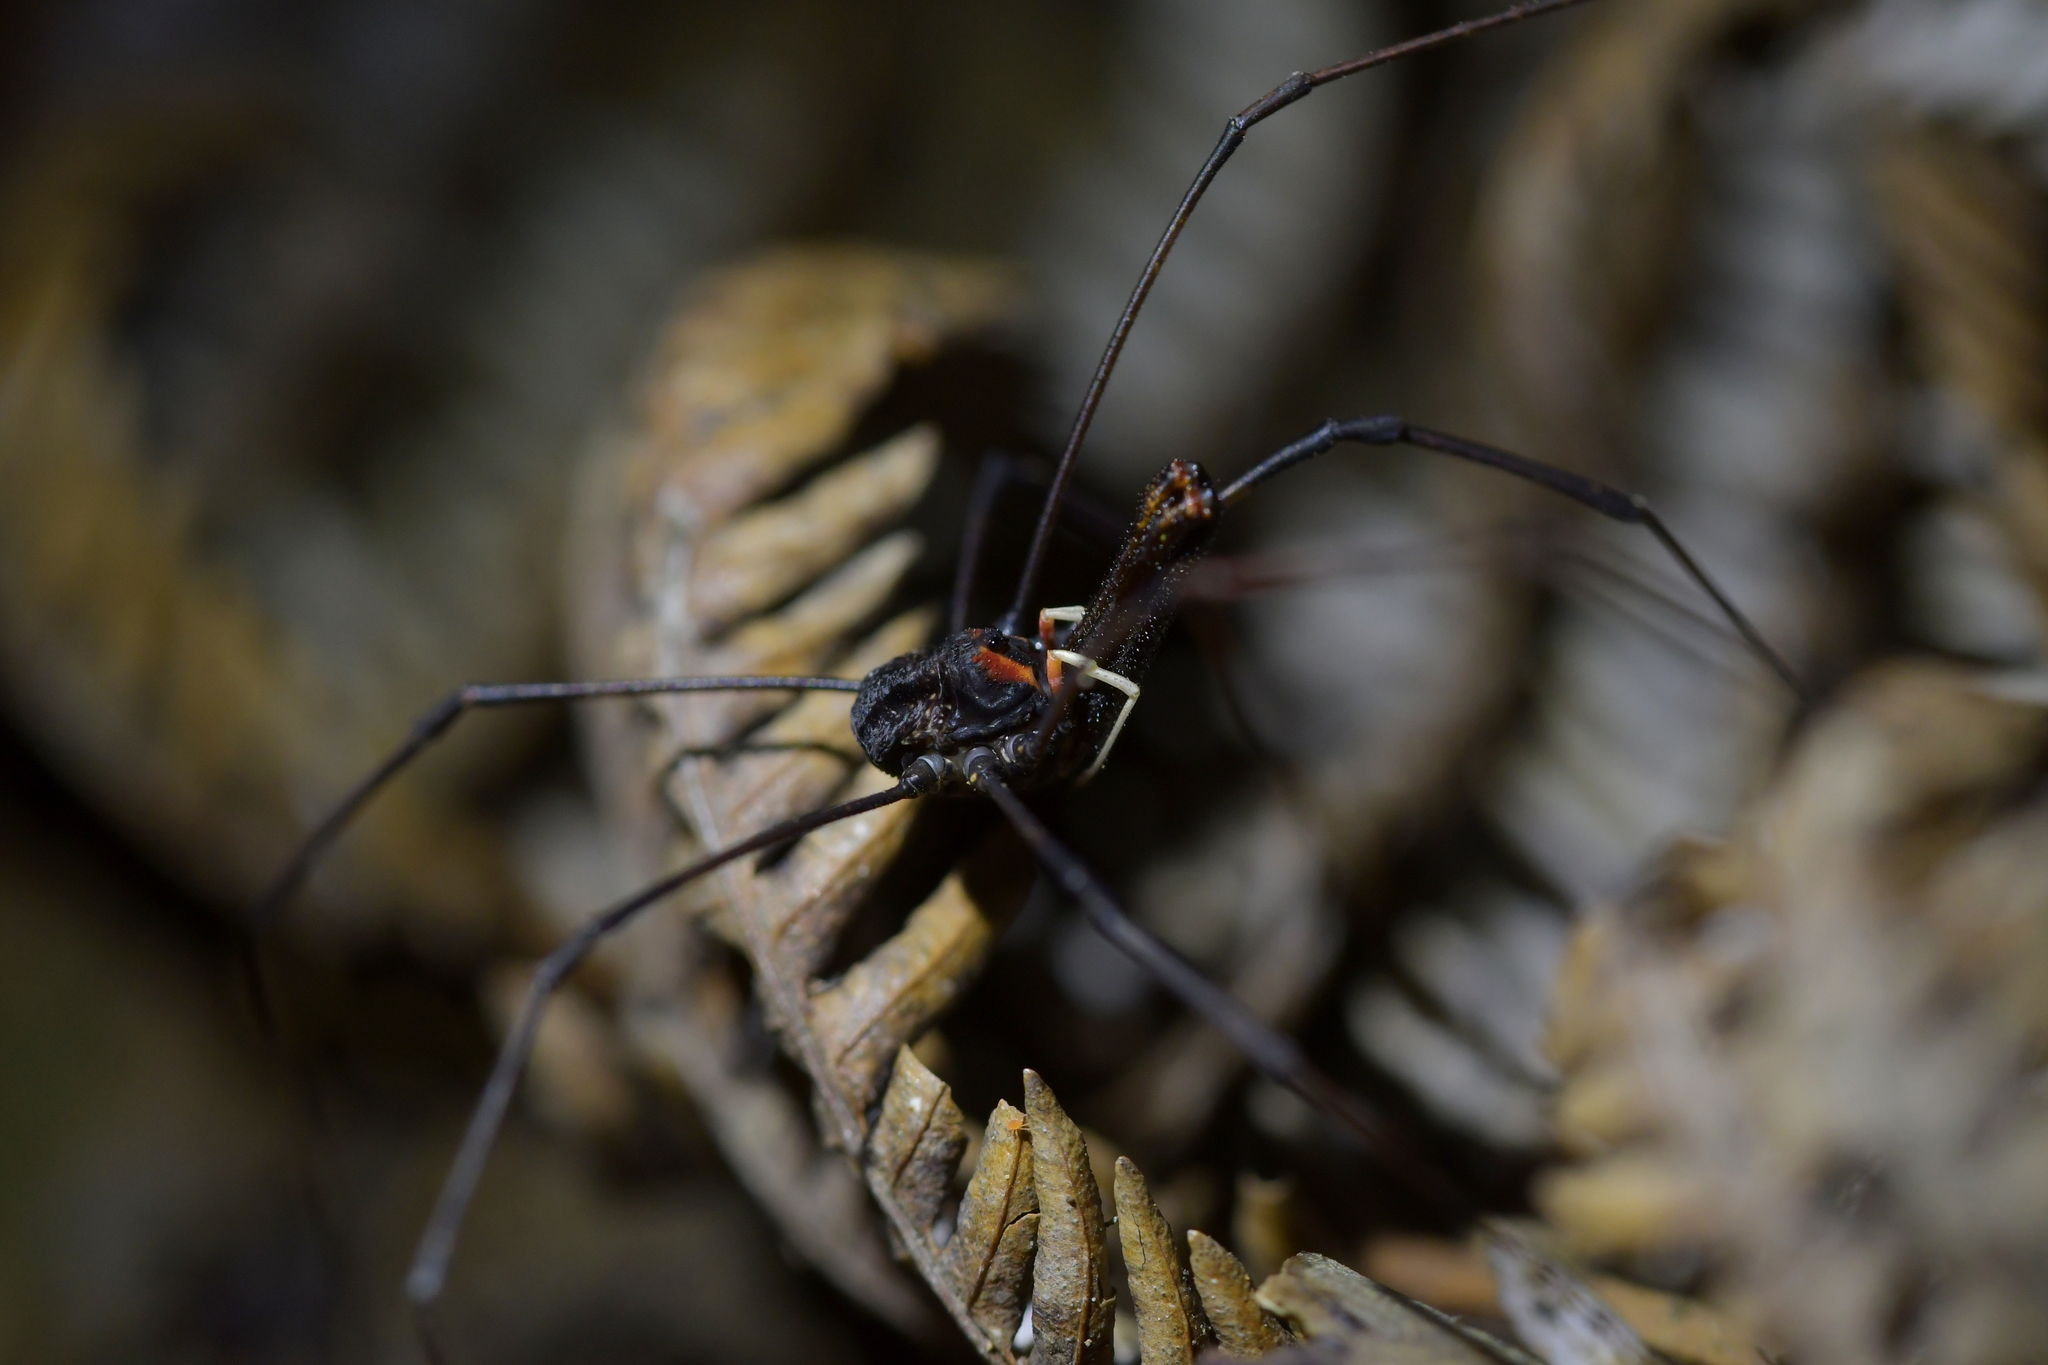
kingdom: Animalia
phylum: Arthropoda
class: Arachnida
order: Opiliones
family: Neopilionidae
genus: Forsteropsalis
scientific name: Forsteropsalis inconstans
